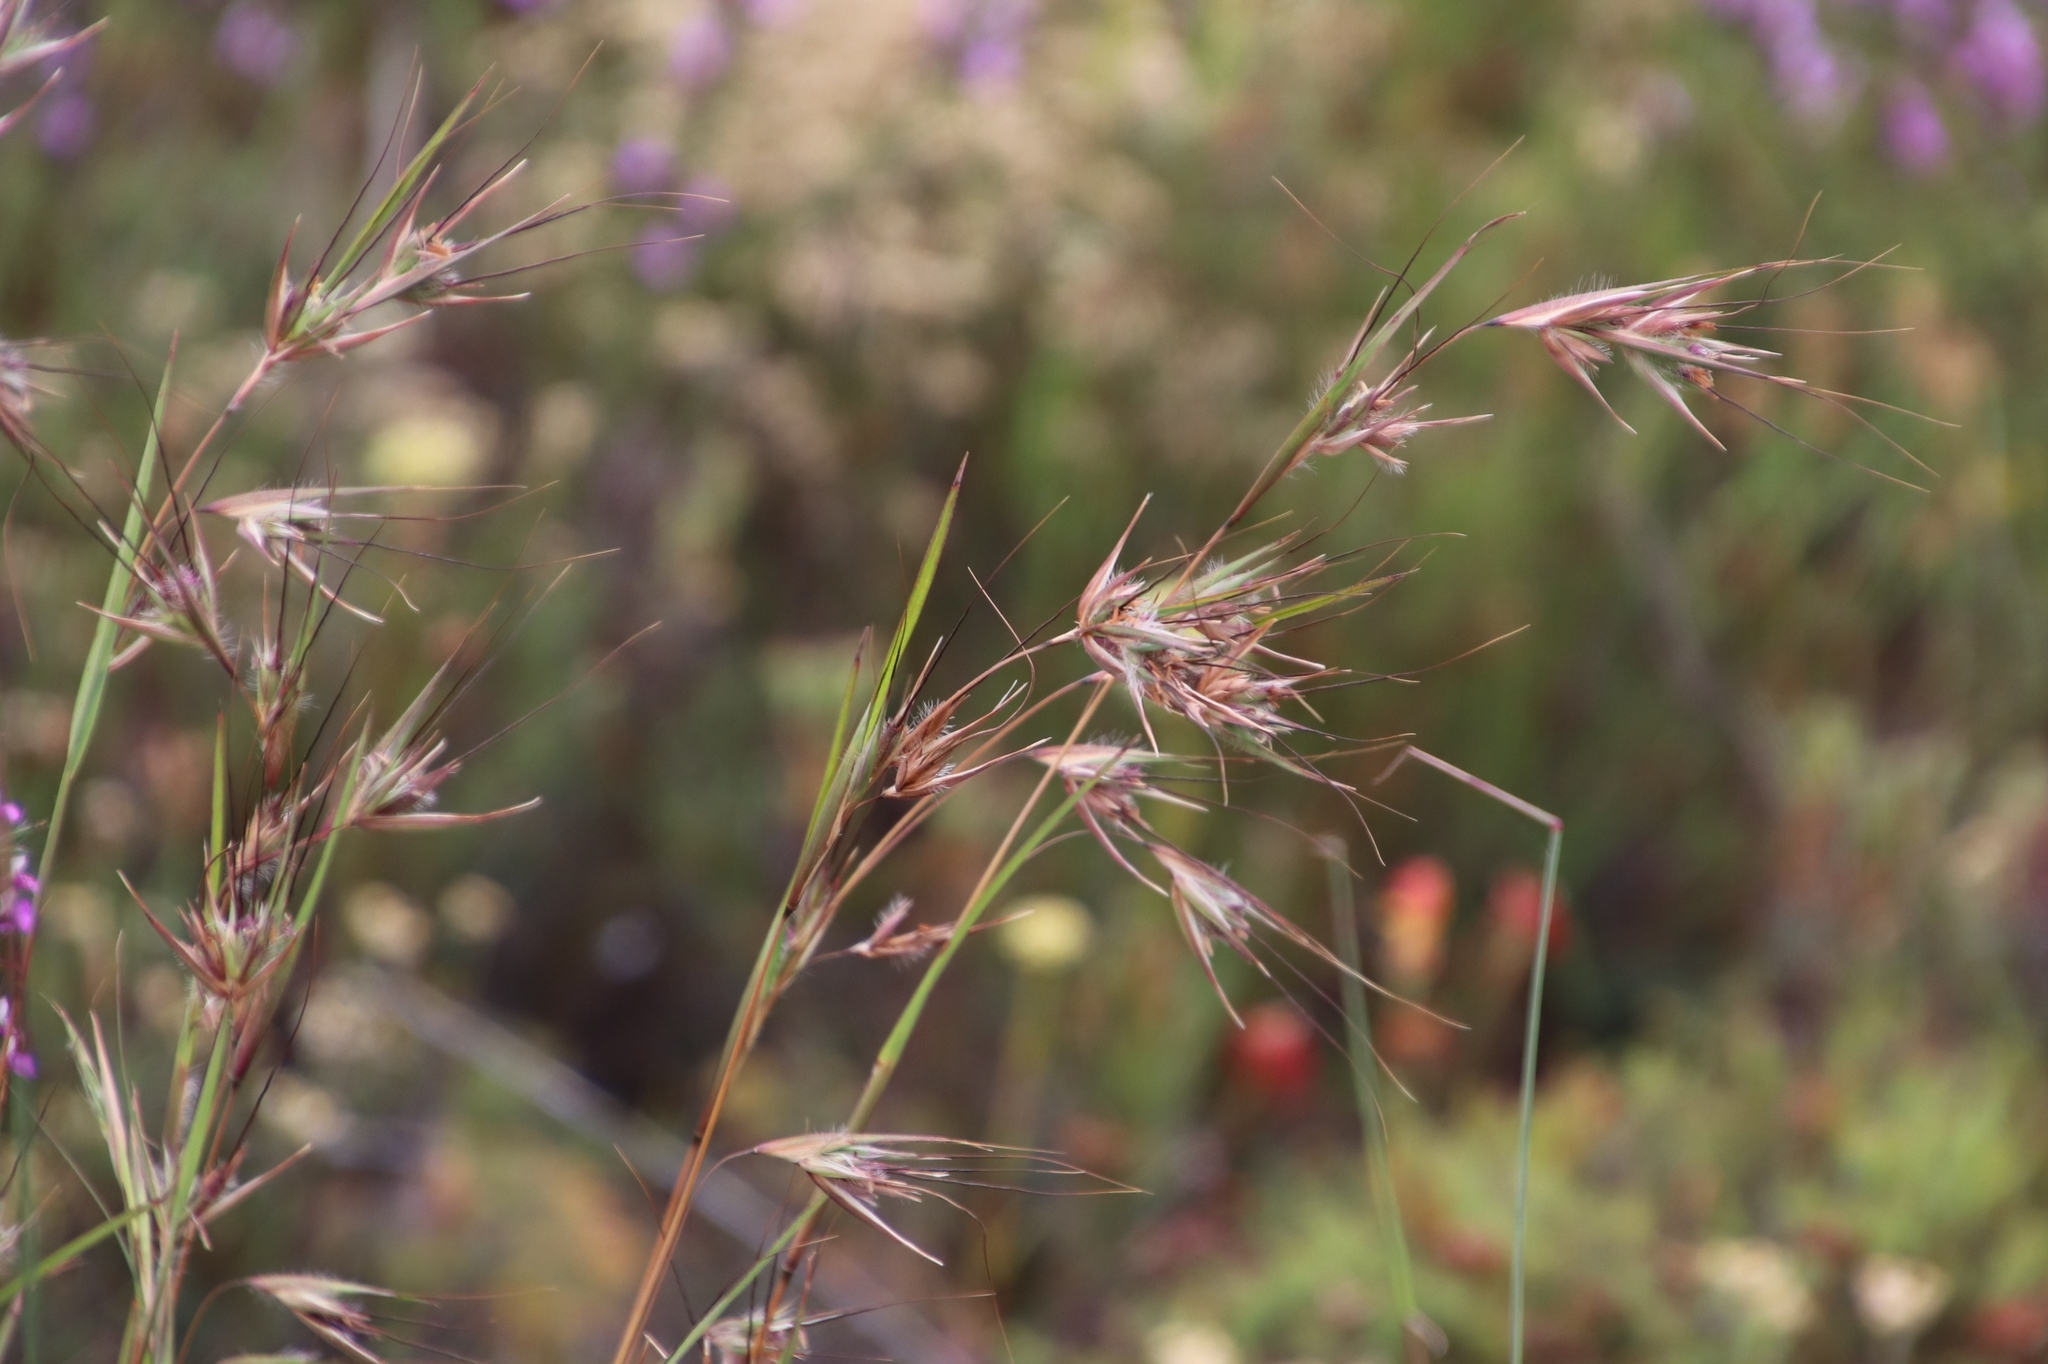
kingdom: Plantae
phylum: Tracheophyta
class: Liliopsida
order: Poales
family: Poaceae
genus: Themeda
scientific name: Themeda triandra
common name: Kangaroo grass
